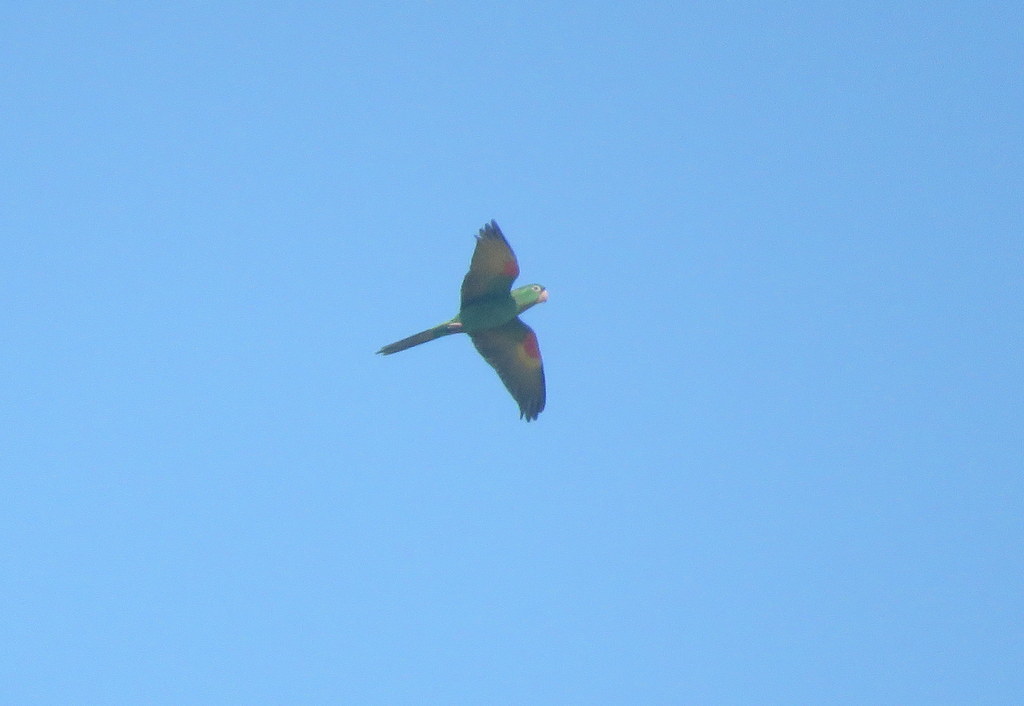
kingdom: Animalia
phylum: Chordata
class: Aves
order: Psittaciformes
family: Psittacidae
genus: Aratinga
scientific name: Aratinga leucophthalma
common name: White-eyed parakeet
